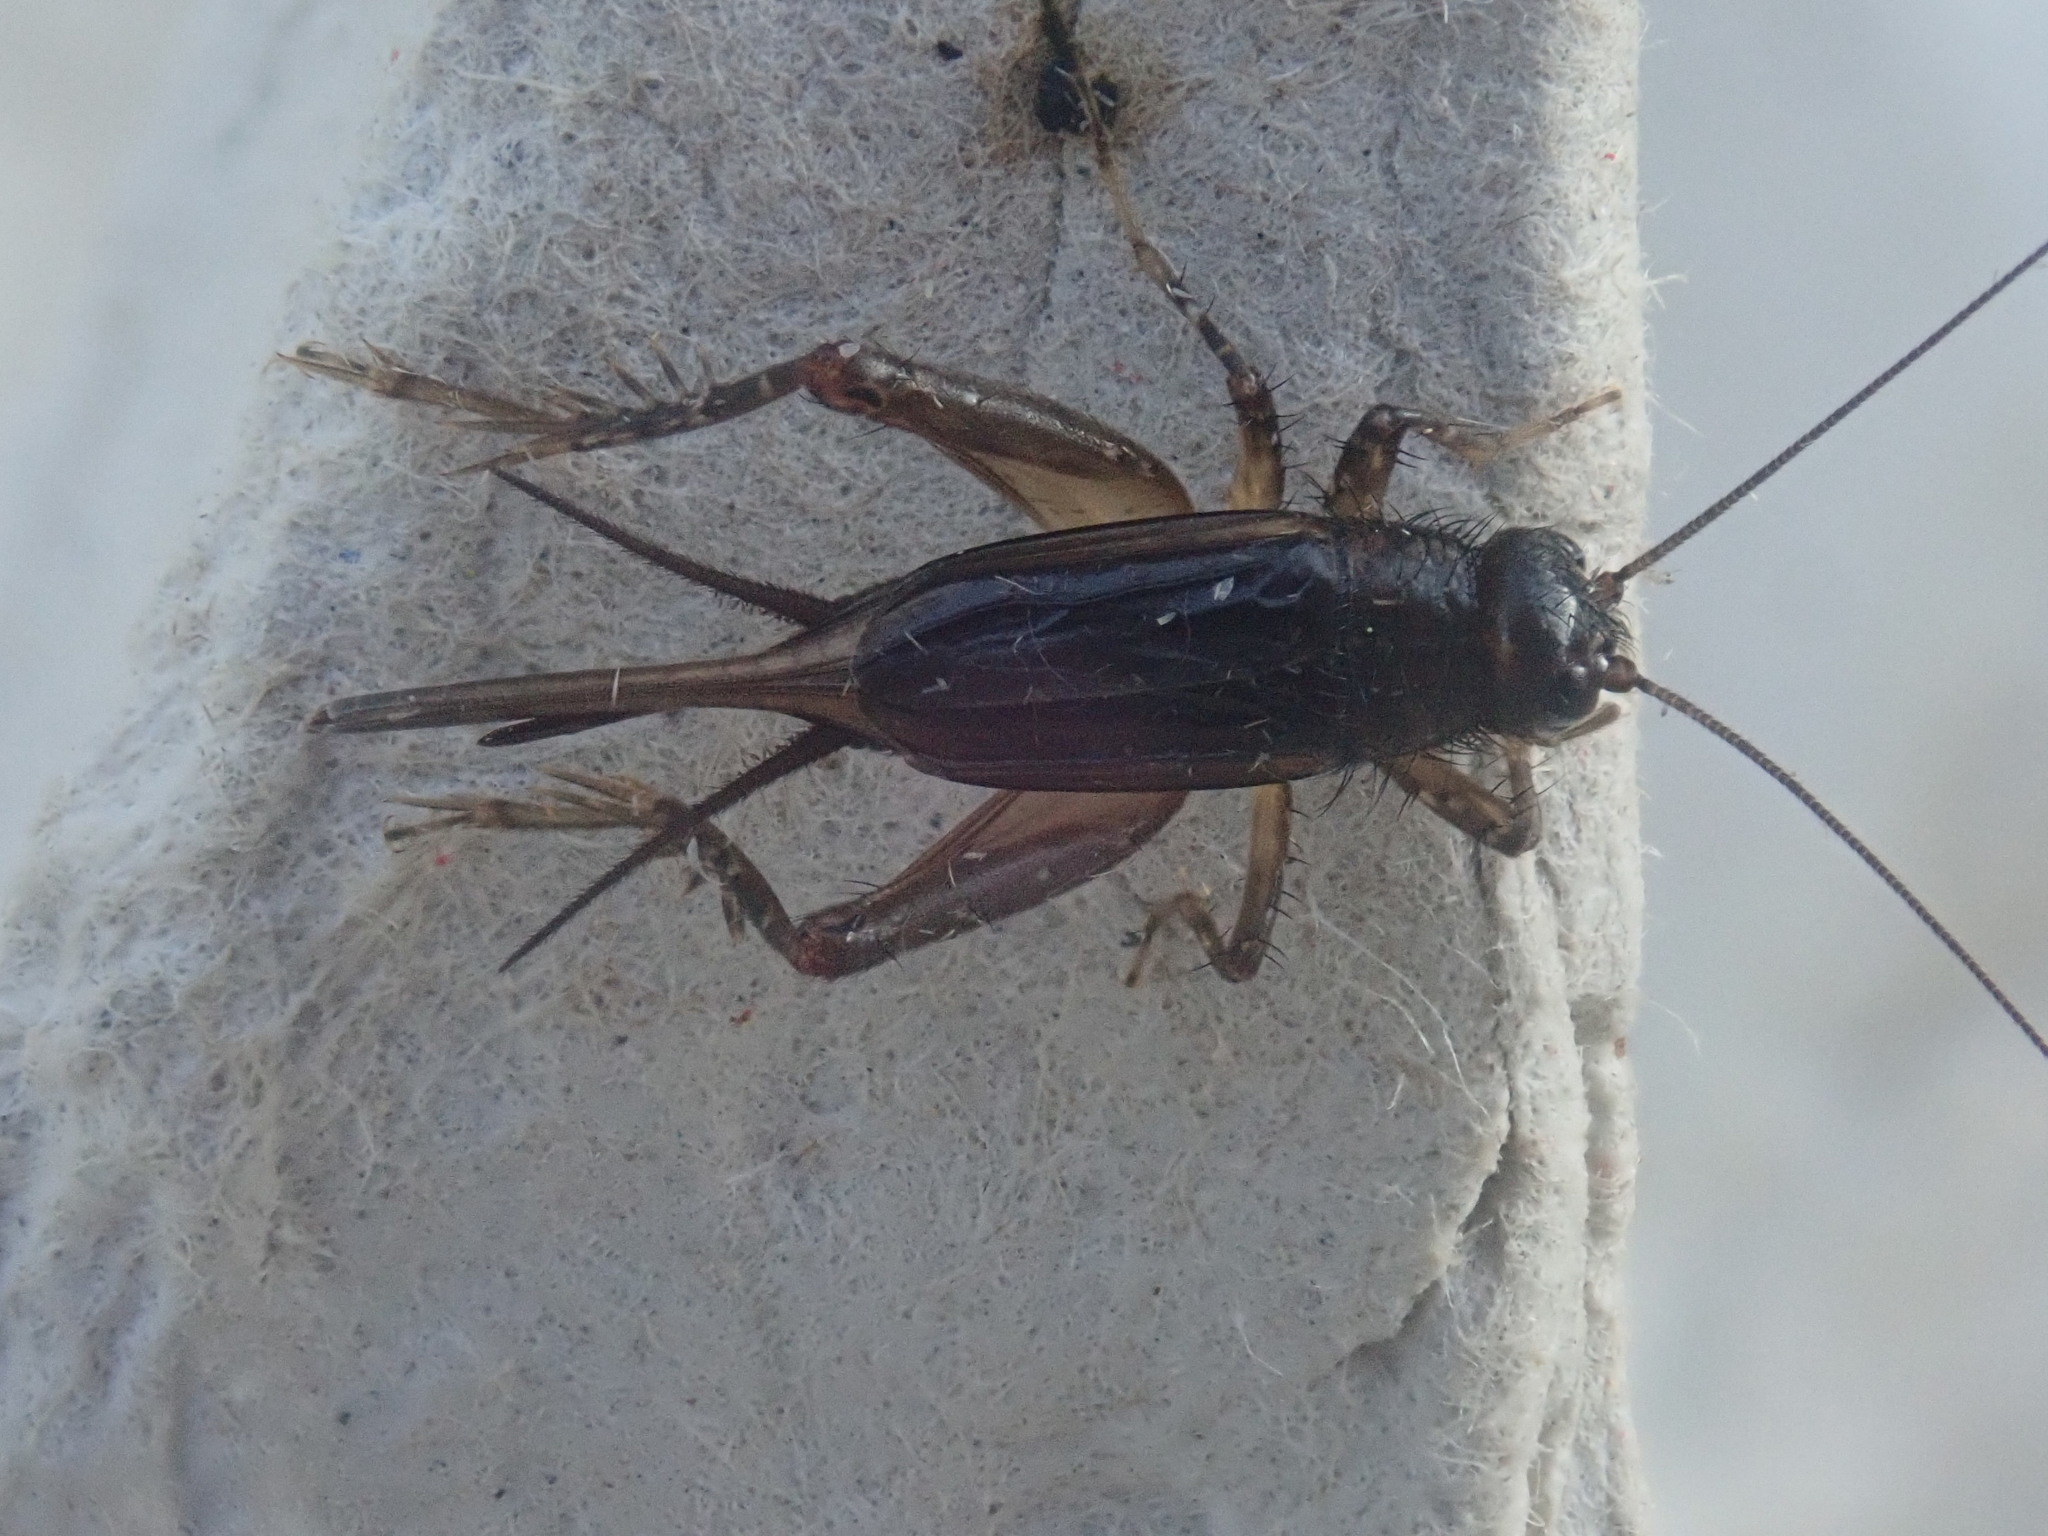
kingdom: Animalia
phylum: Arthropoda
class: Insecta
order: Orthoptera
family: Trigonidiidae
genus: Eunemobius
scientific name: Eunemobius carolinus
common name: Carolina ground cricket
